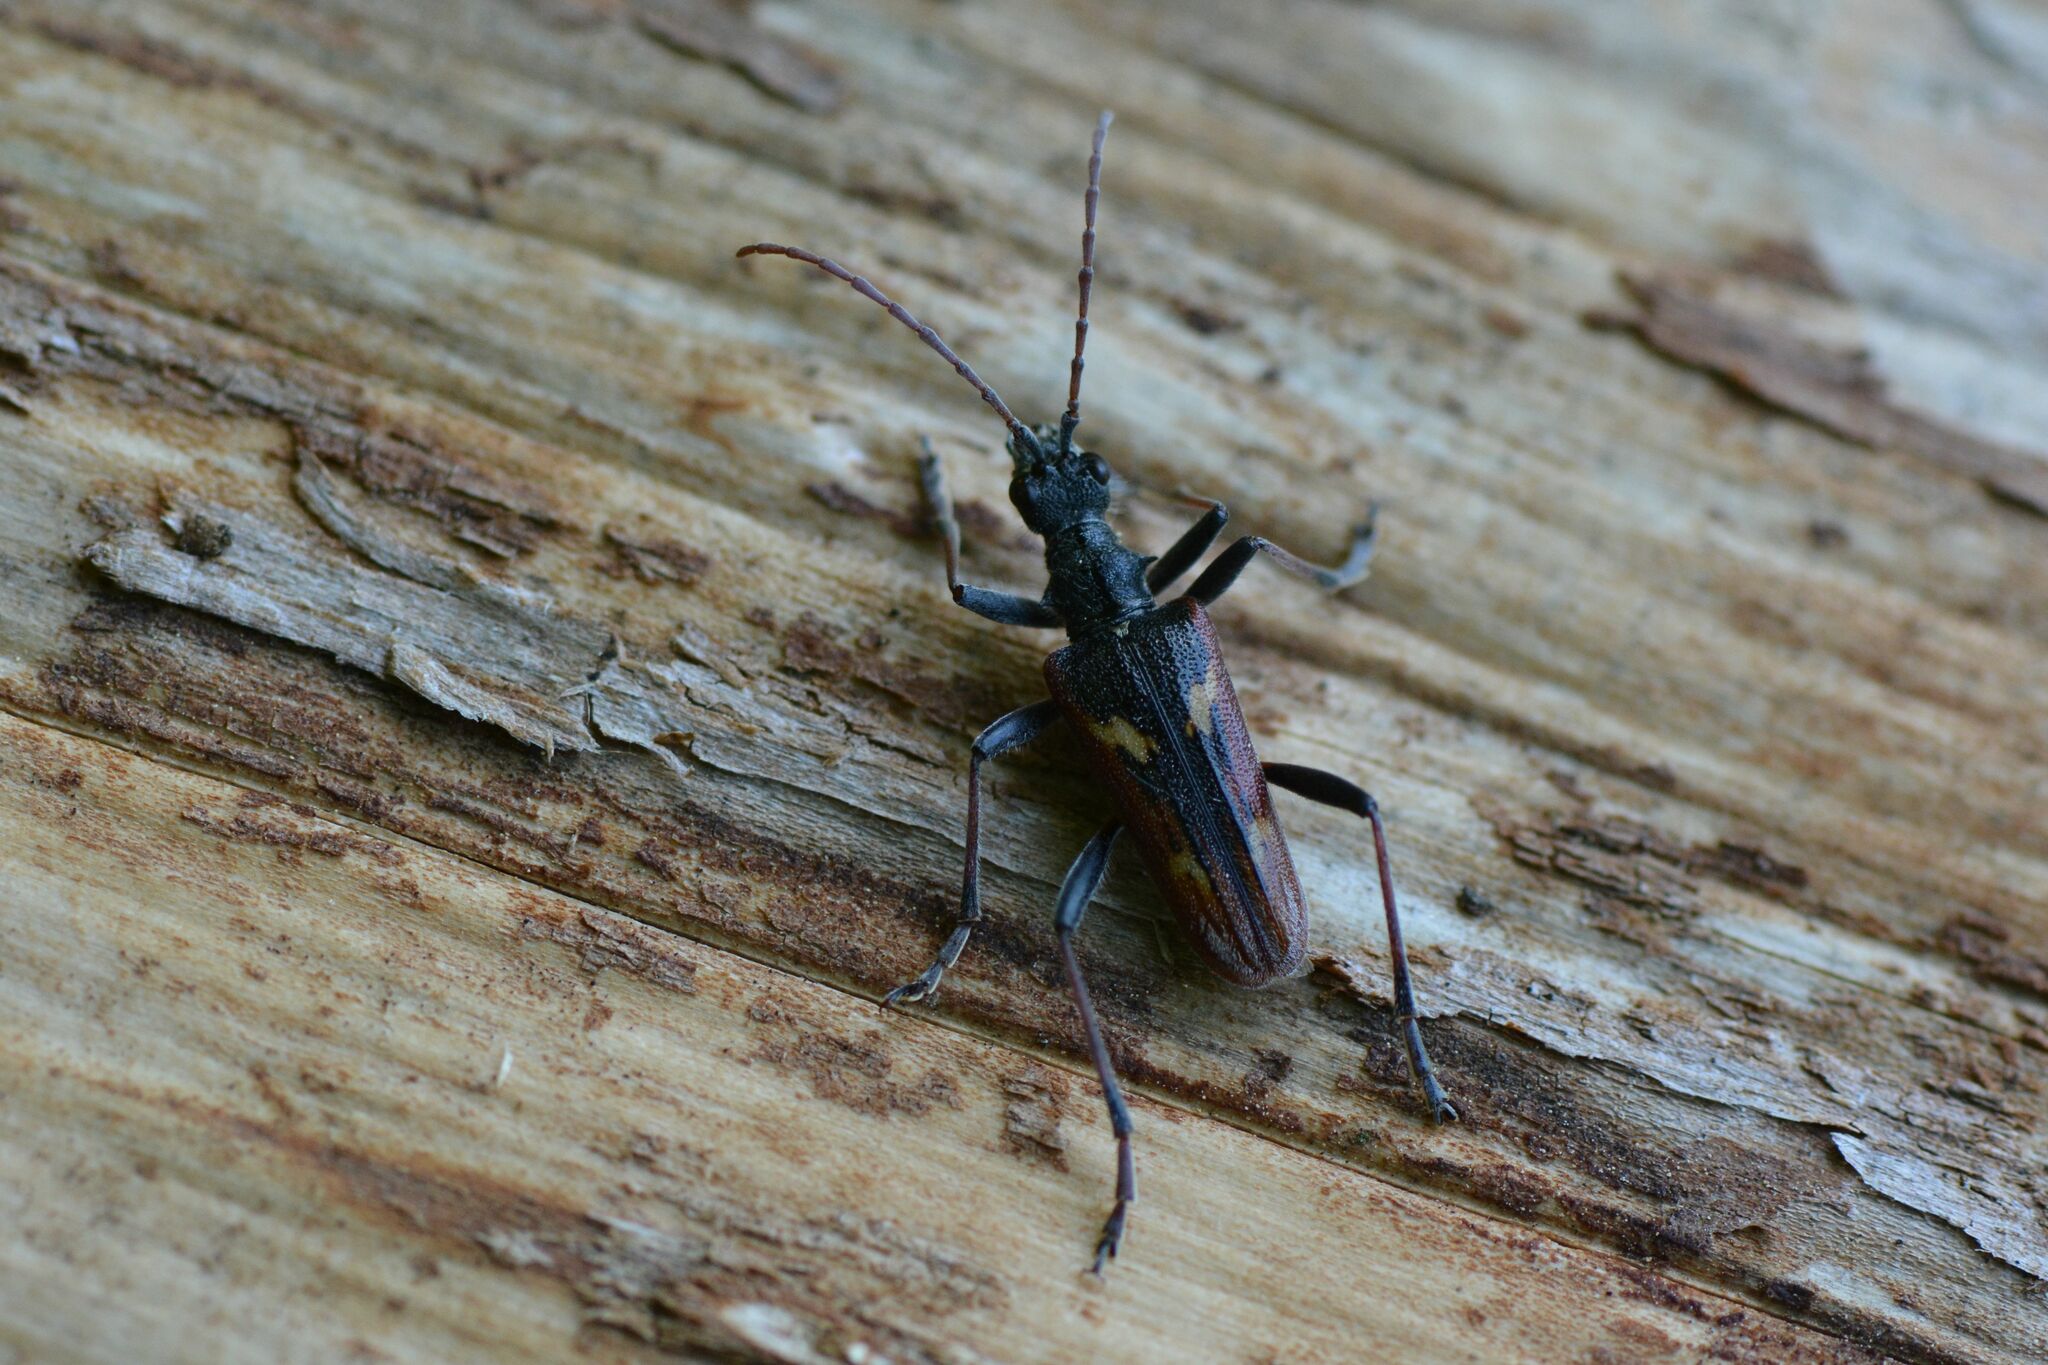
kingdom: Animalia
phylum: Arthropoda
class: Insecta
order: Coleoptera
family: Cerambycidae
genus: Rhagium
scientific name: Rhagium bifasciatum
